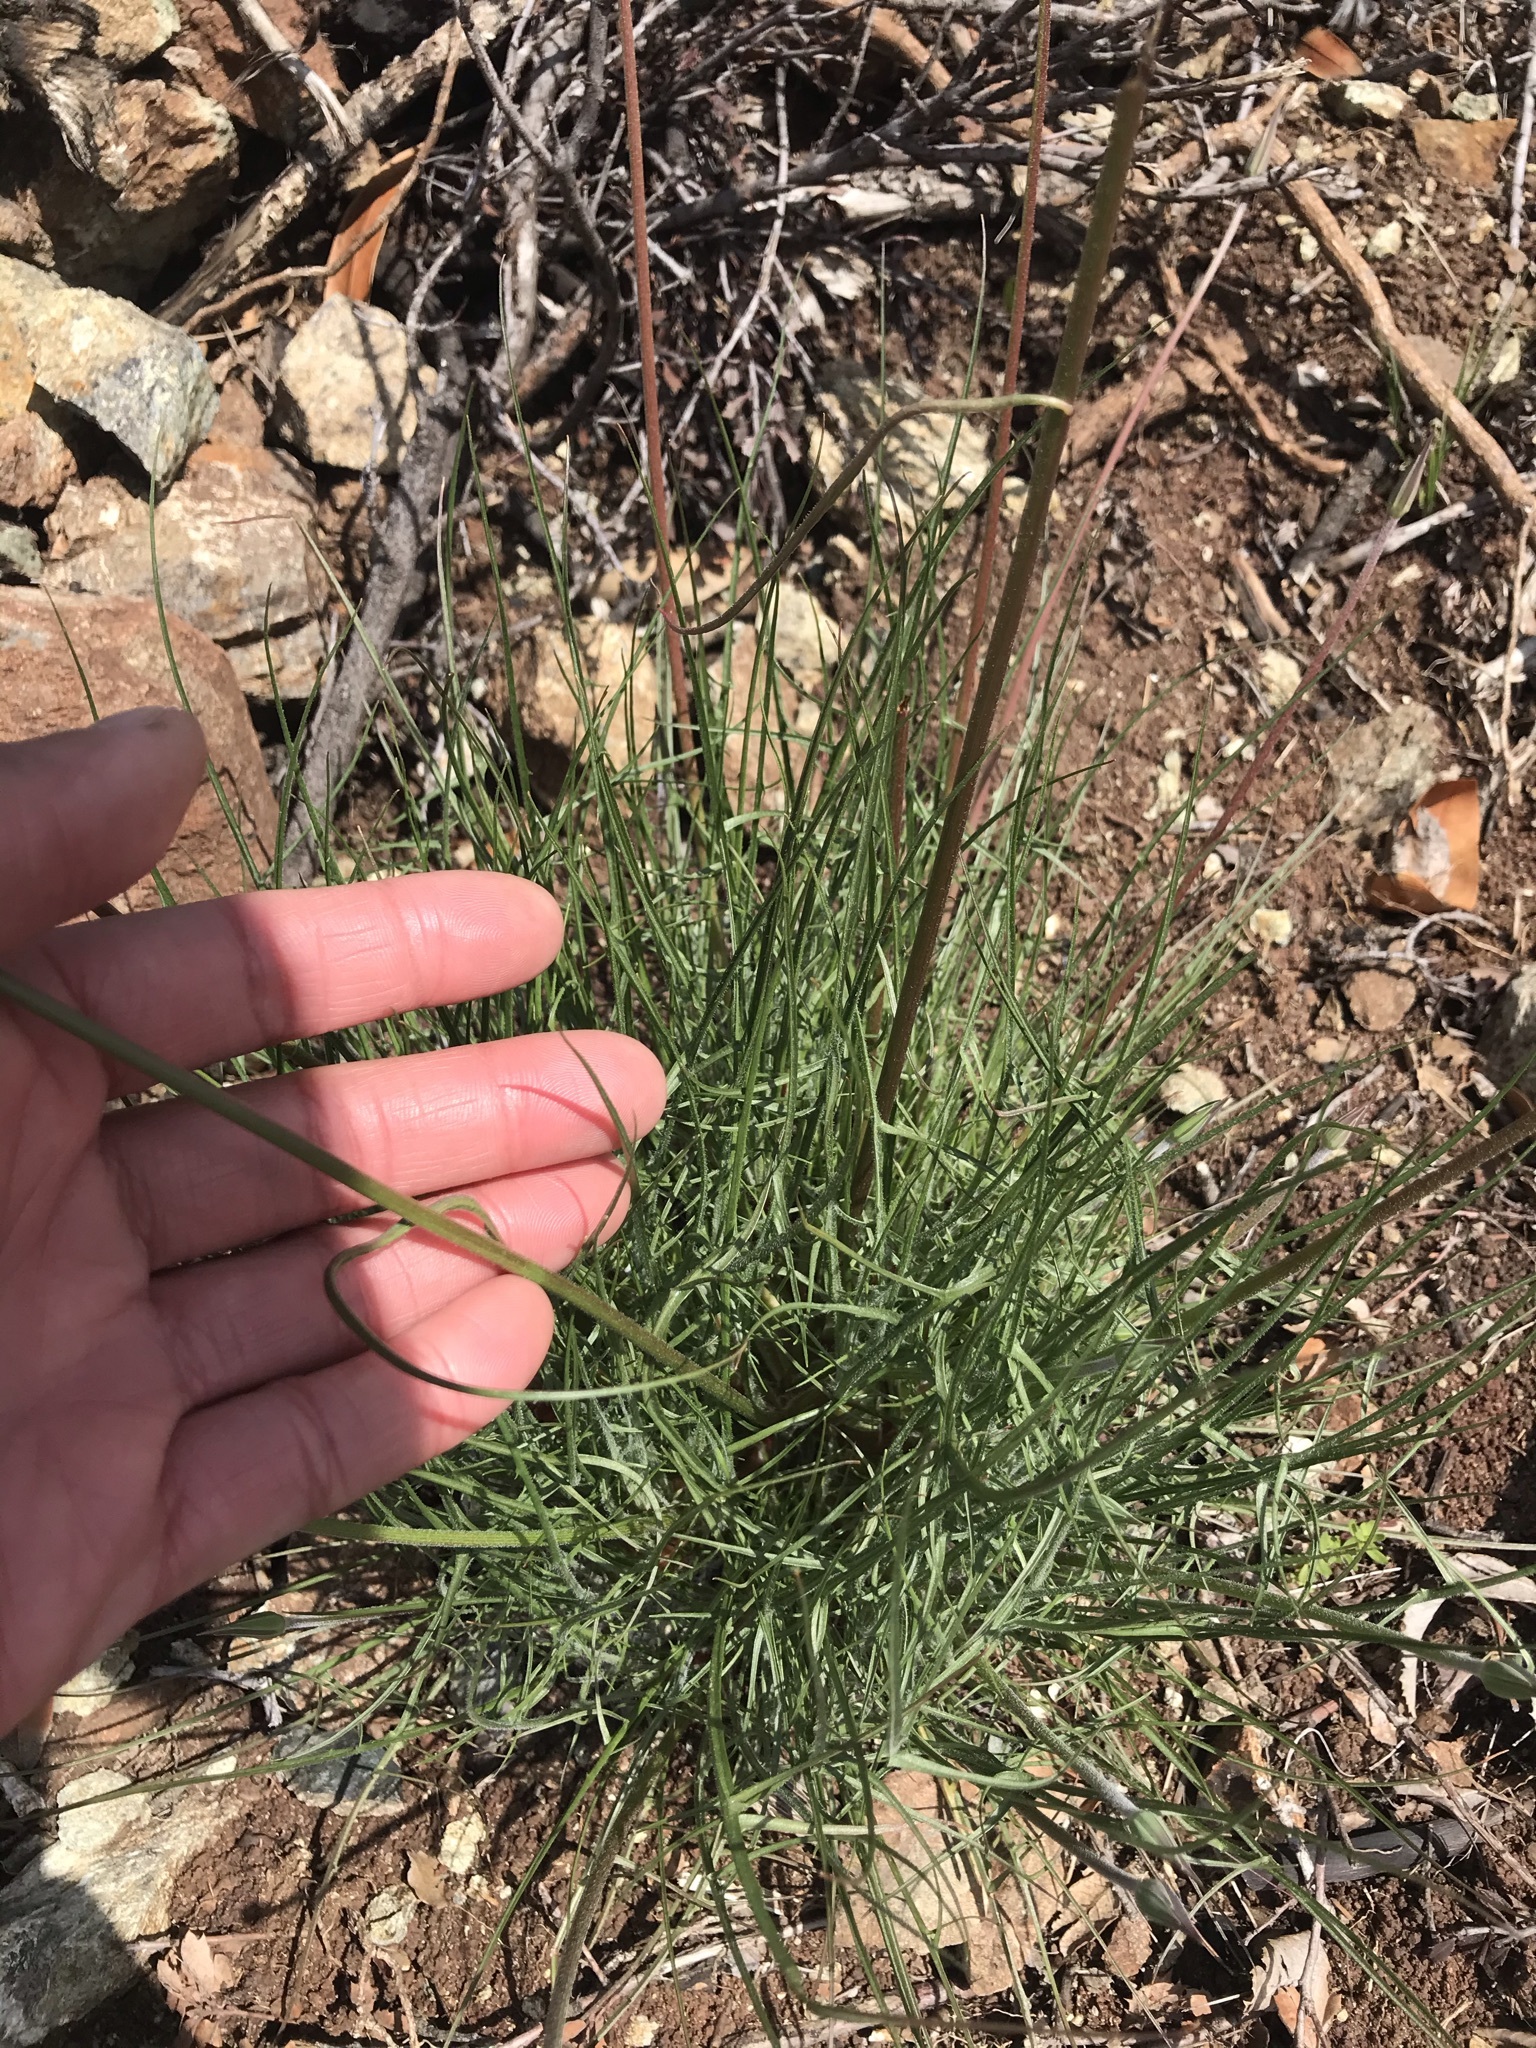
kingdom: Plantae
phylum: Tracheophyta
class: Magnoliopsida
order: Asterales
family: Asteraceae
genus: Microseris
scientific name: Microseris lindleyi
